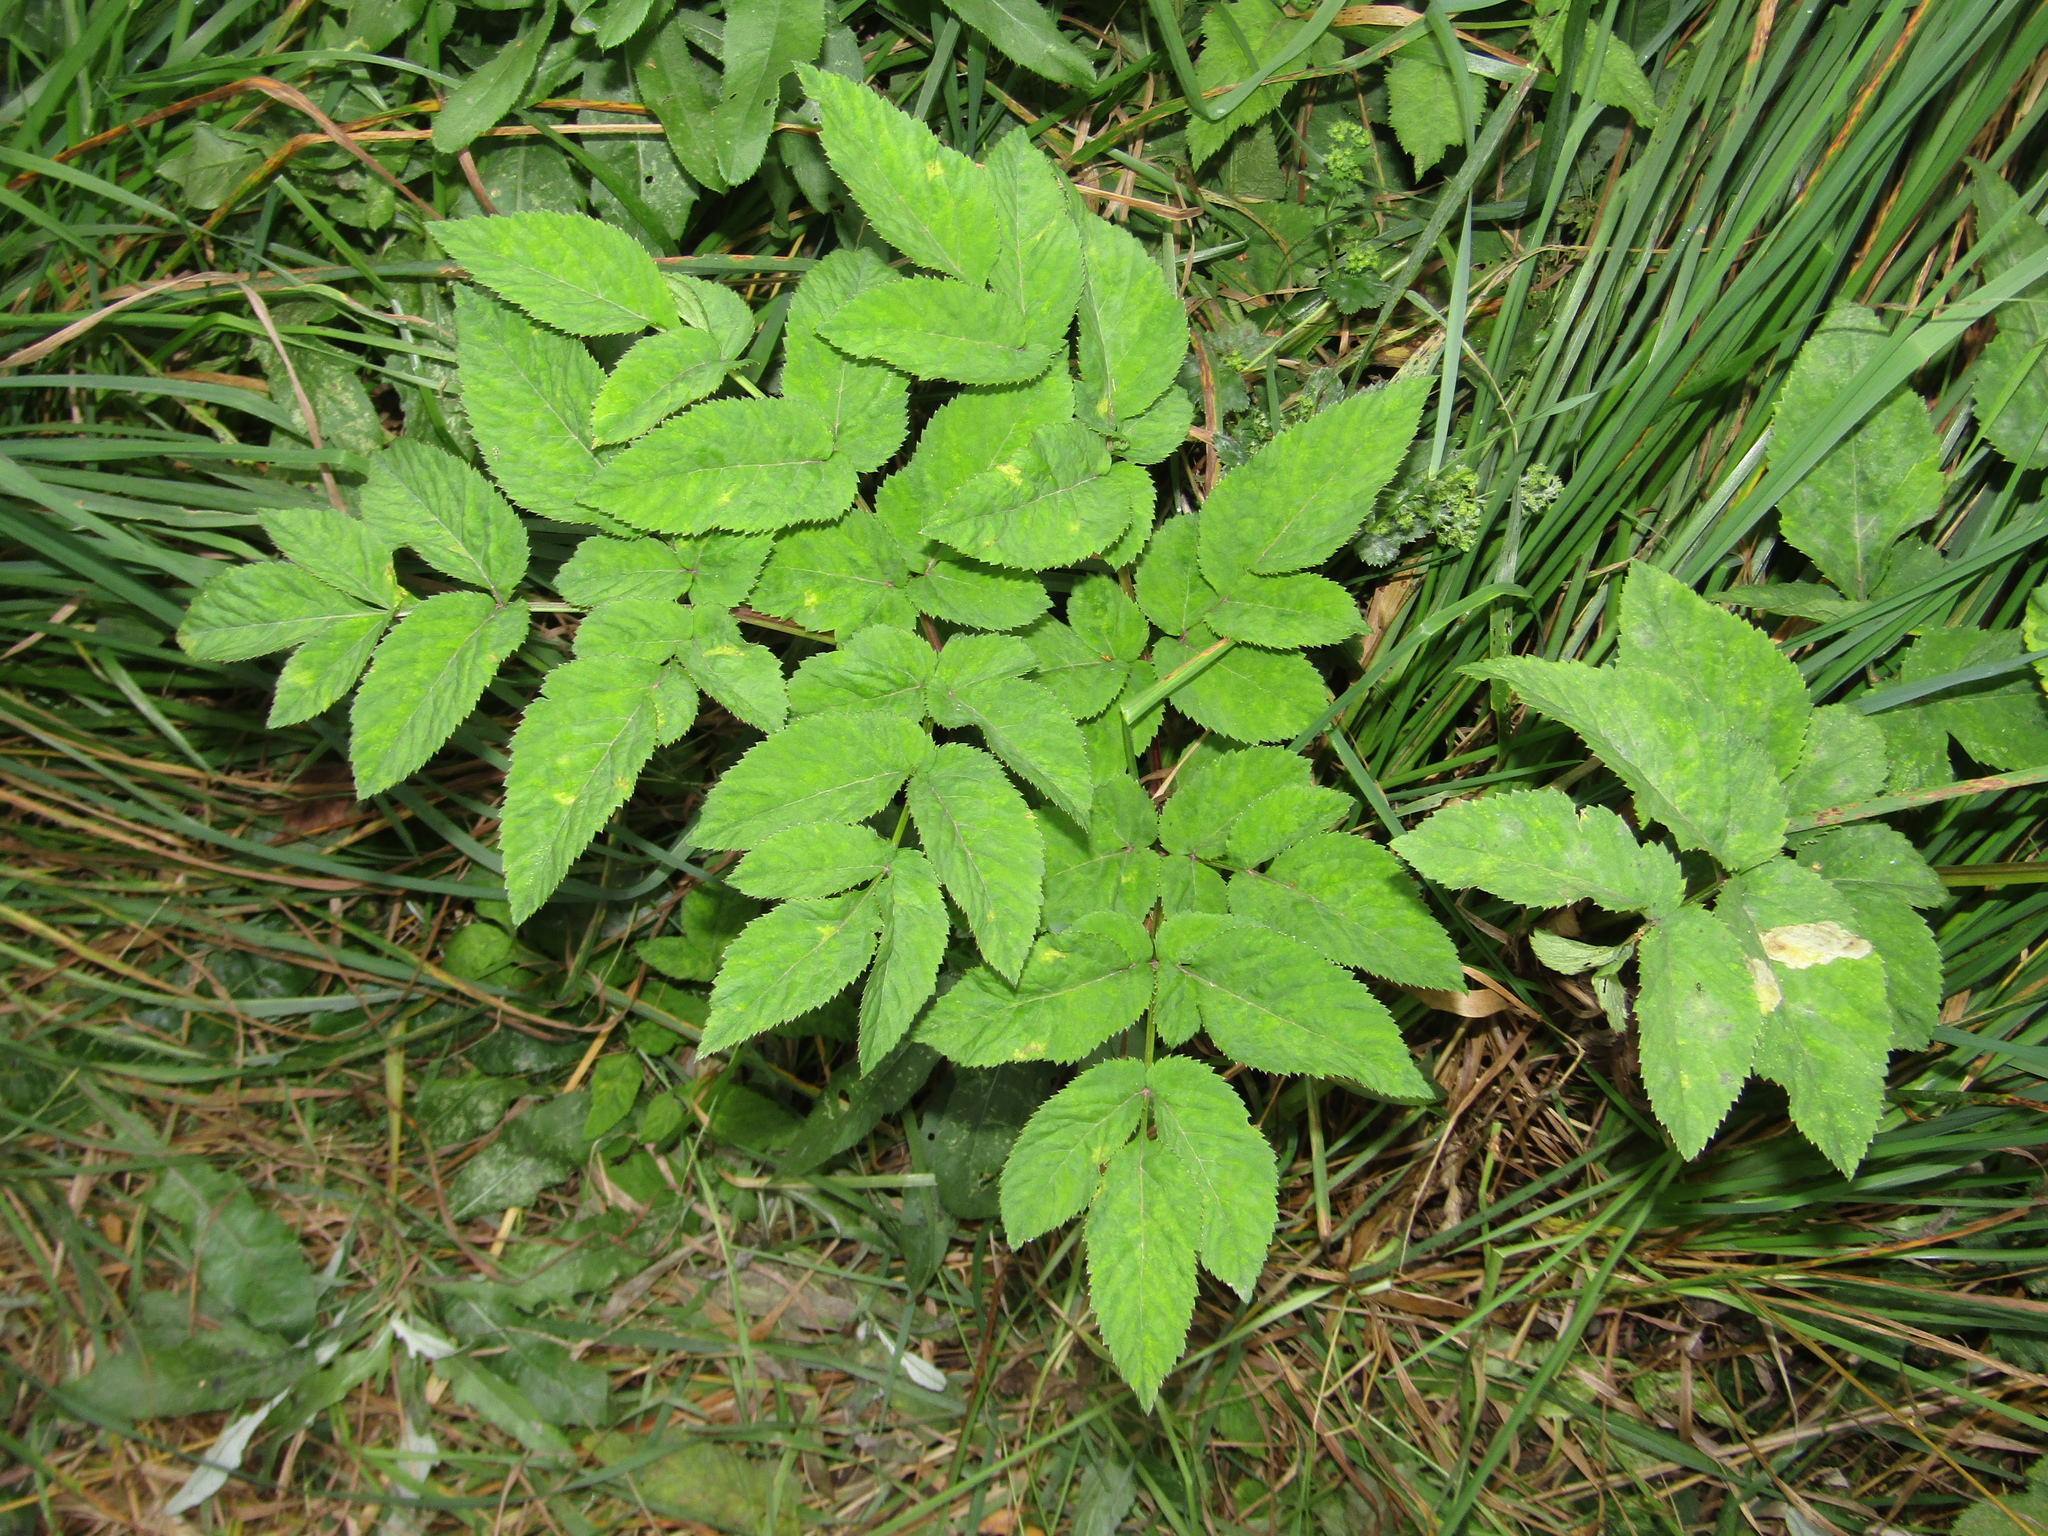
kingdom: Plantae
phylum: Tracheophyta
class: Magnoliopsida
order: Apiales
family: Apiaceae
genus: Angelica
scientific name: Angelica sylvestris
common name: Wild angelica
